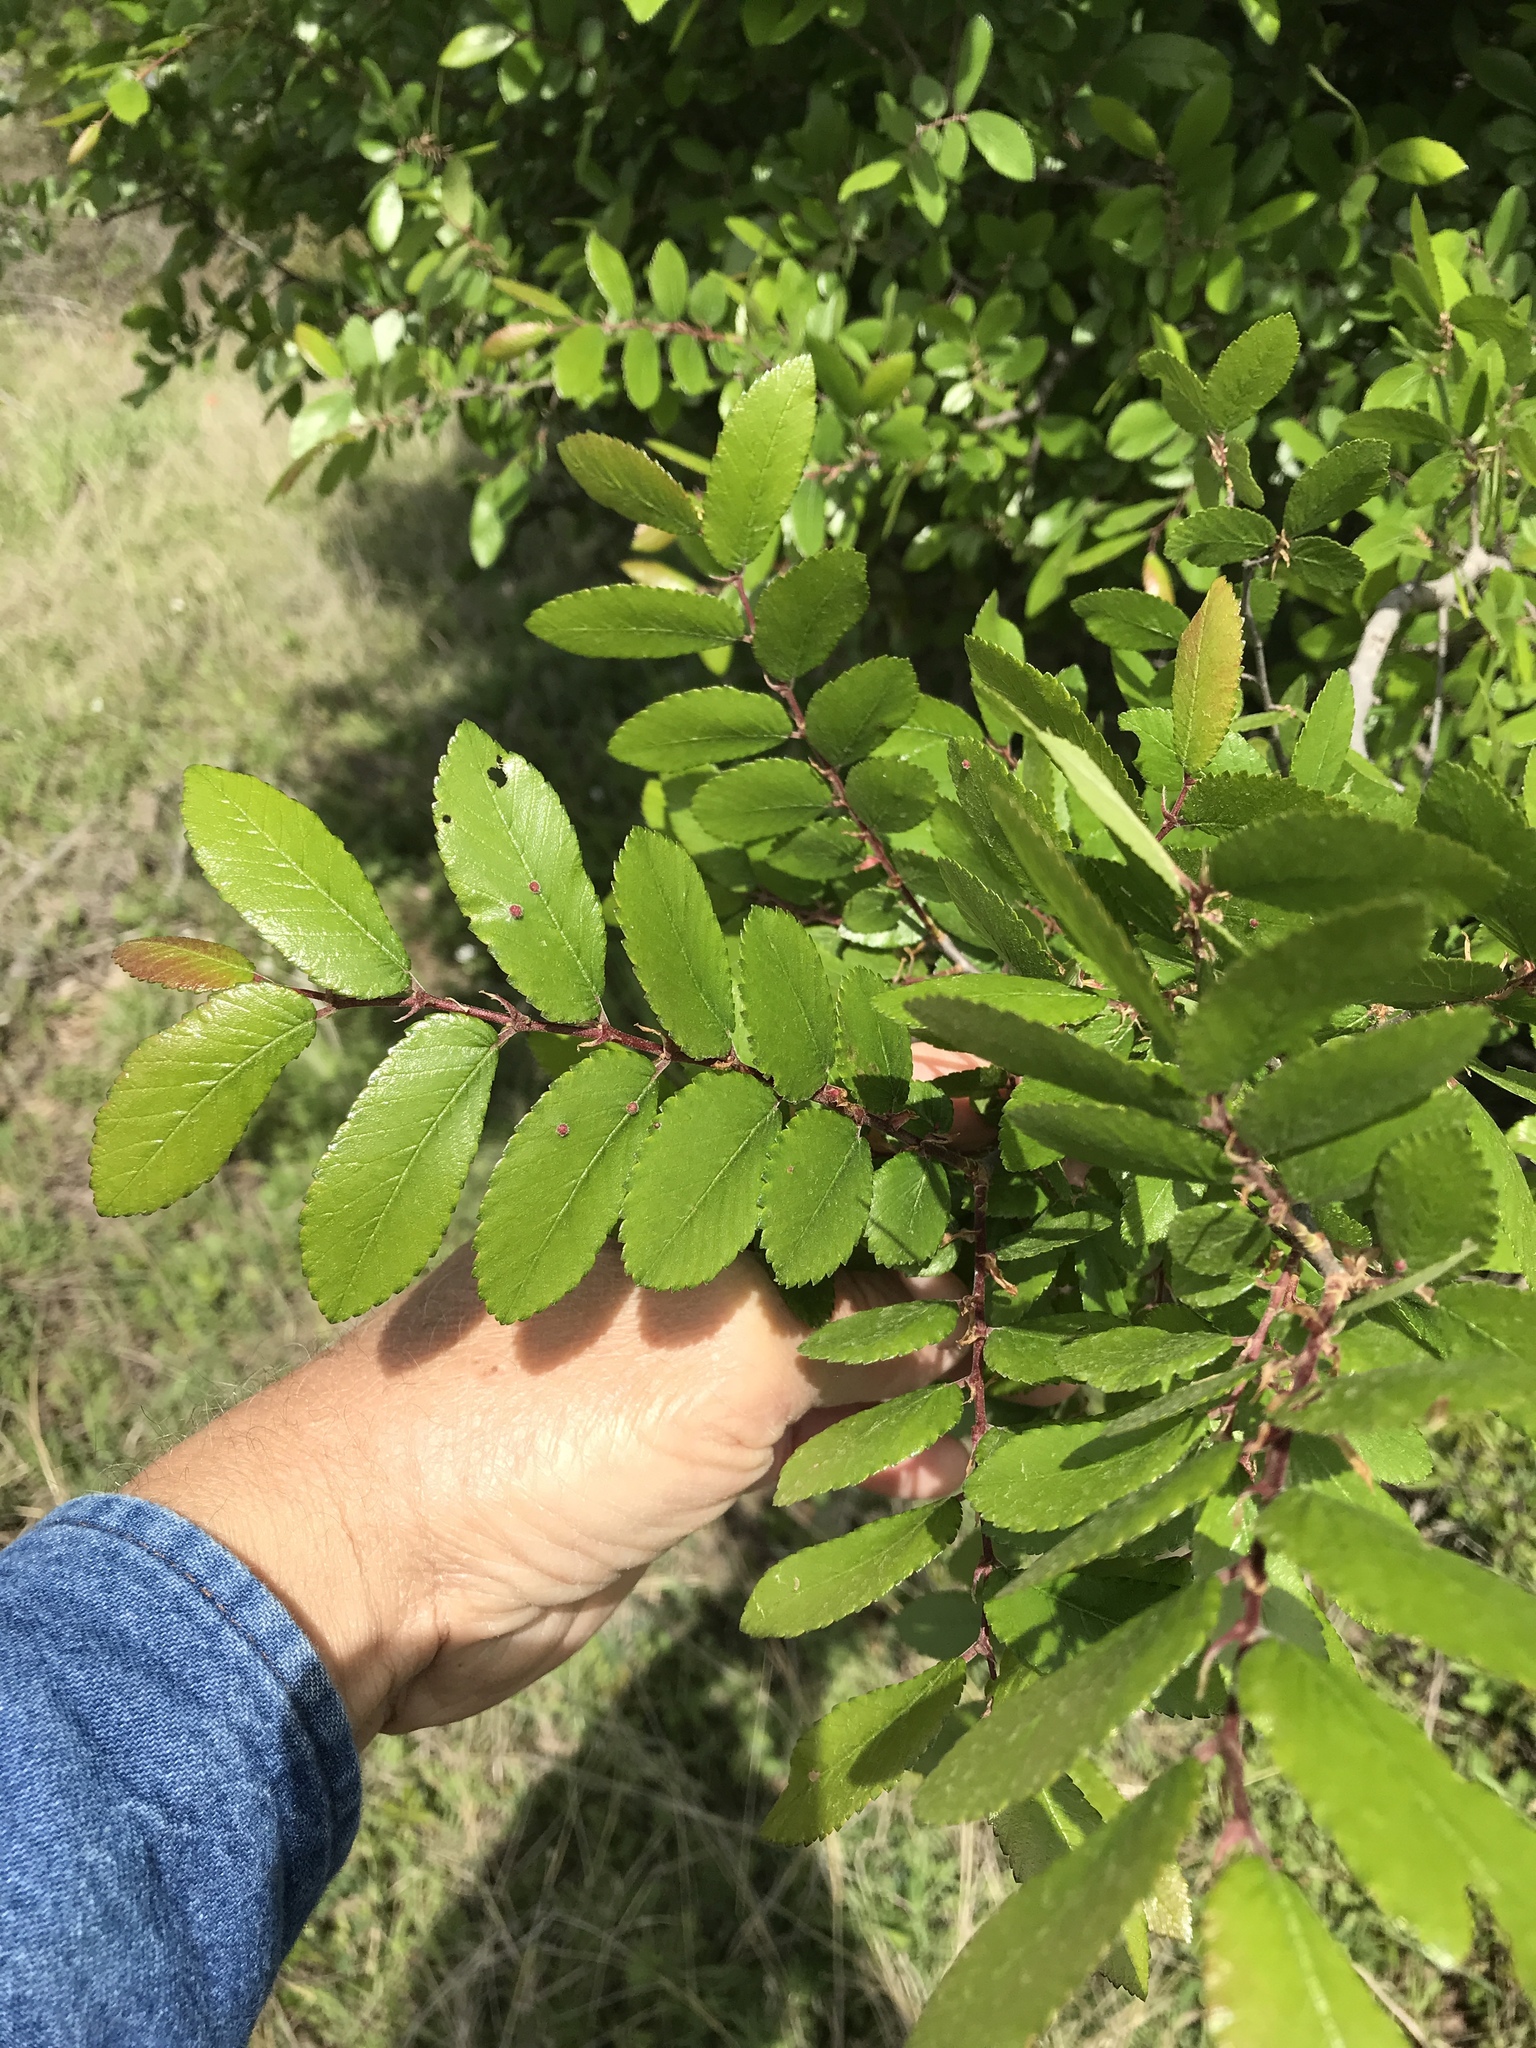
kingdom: Plantae
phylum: Tracheophyta
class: Magnoliopsida
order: Rosales
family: Ulmaceae
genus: Ulmus
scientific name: Ulmus crassifolia
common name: Basket elm
